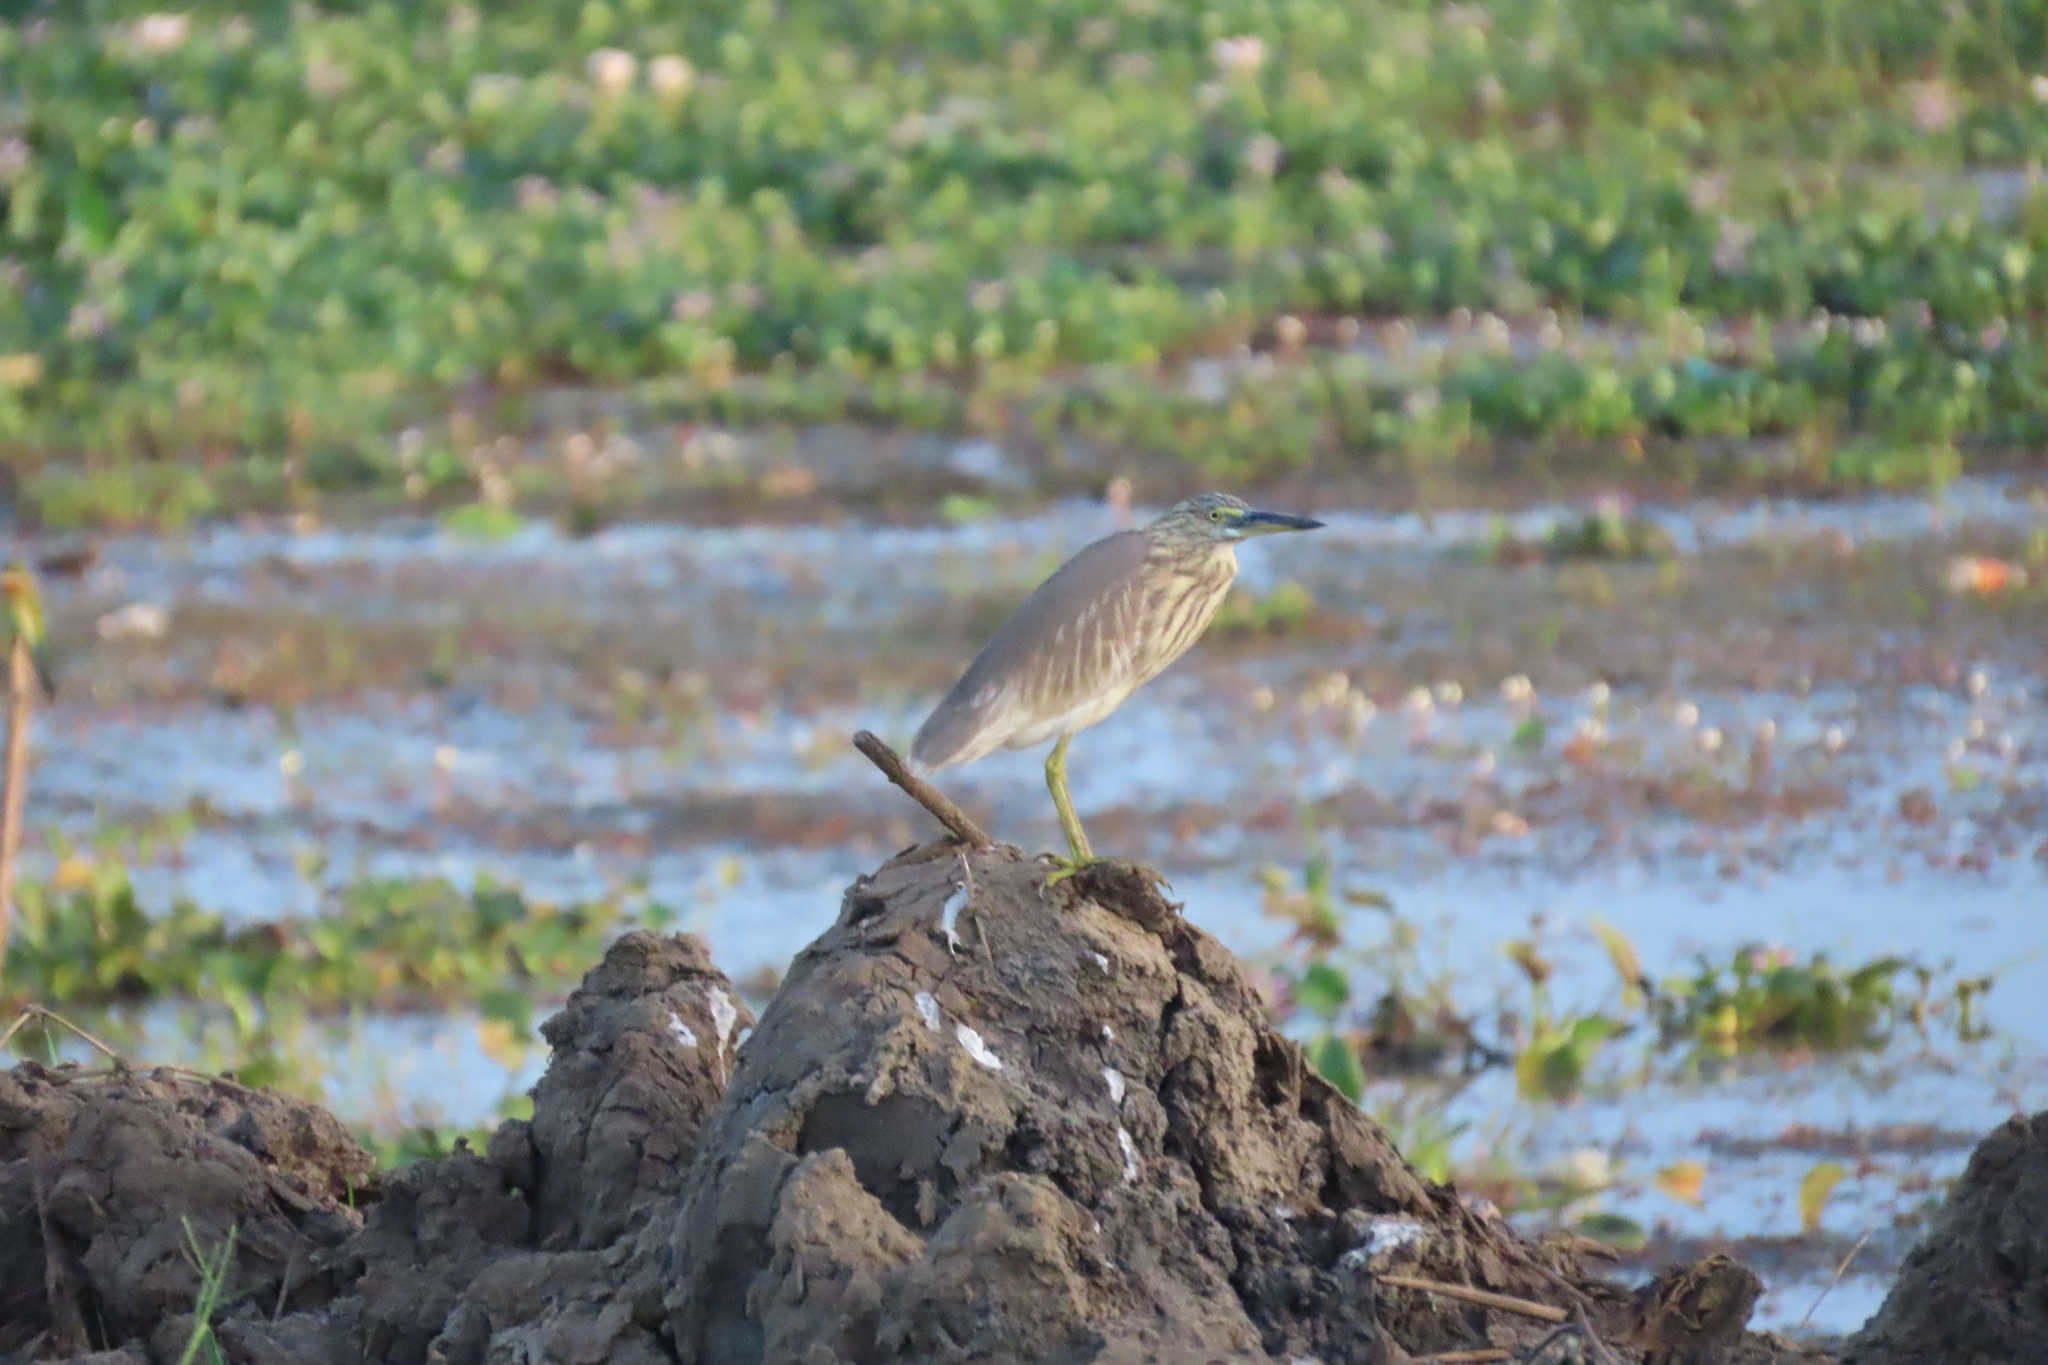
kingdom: Animalia
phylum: Chordata
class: Aves
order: Pelecaniformes
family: Ardeidae
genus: Ardeola
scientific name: Ardeola grayii
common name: Indian pond heron
